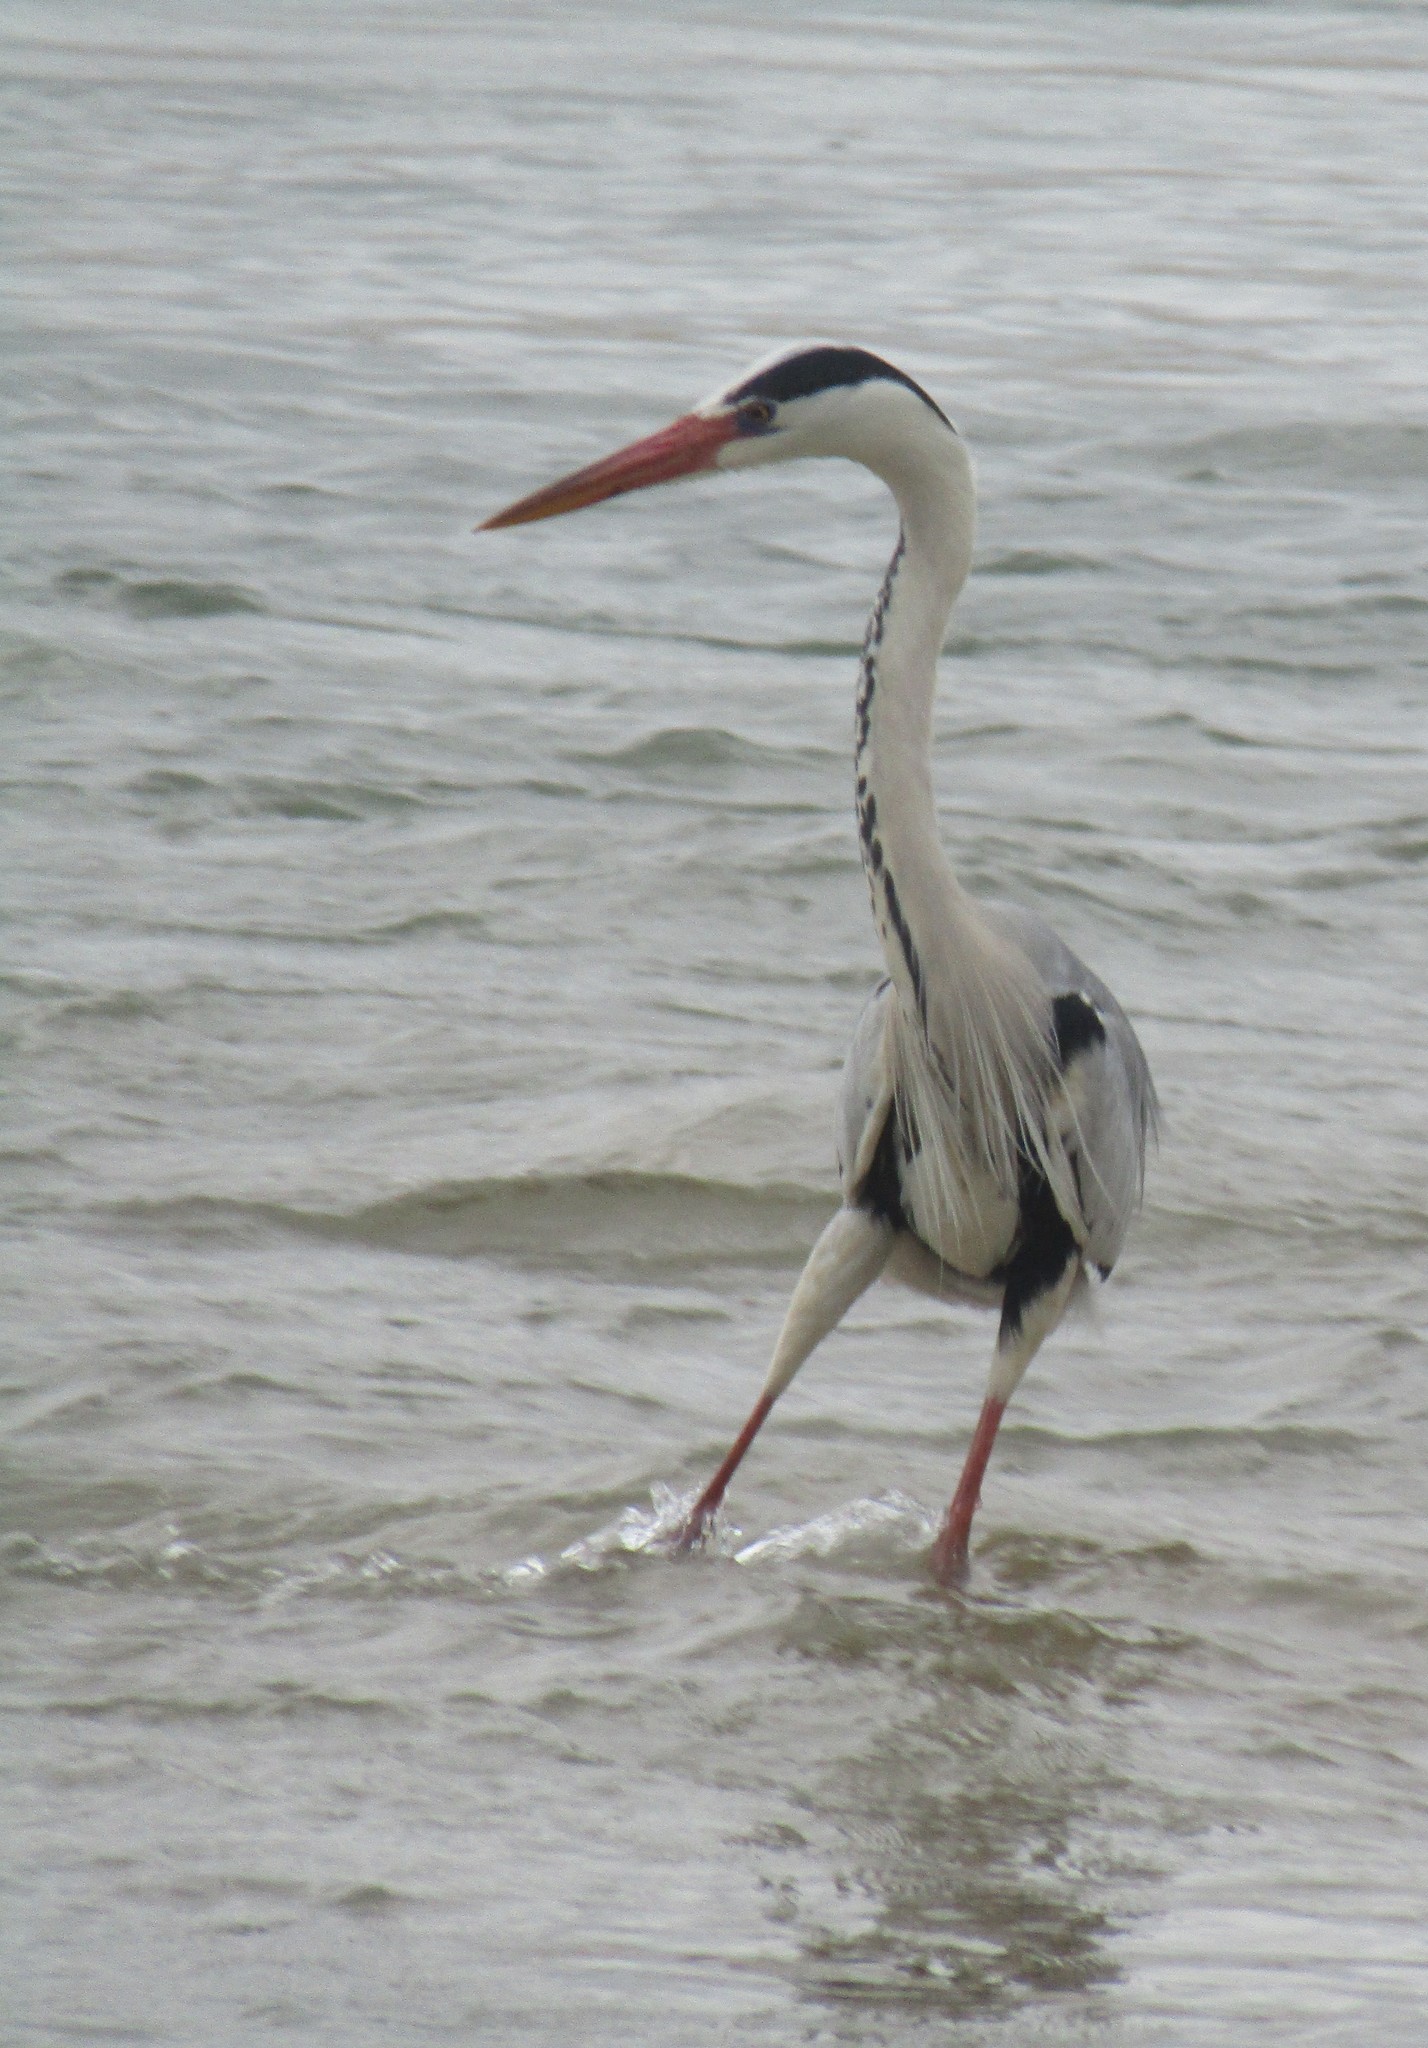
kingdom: Animalia
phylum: Chordata
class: Aves
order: Pelecaniformes
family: Ardeidae
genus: Ardea
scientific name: Ardea cinerea
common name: Grey heron
